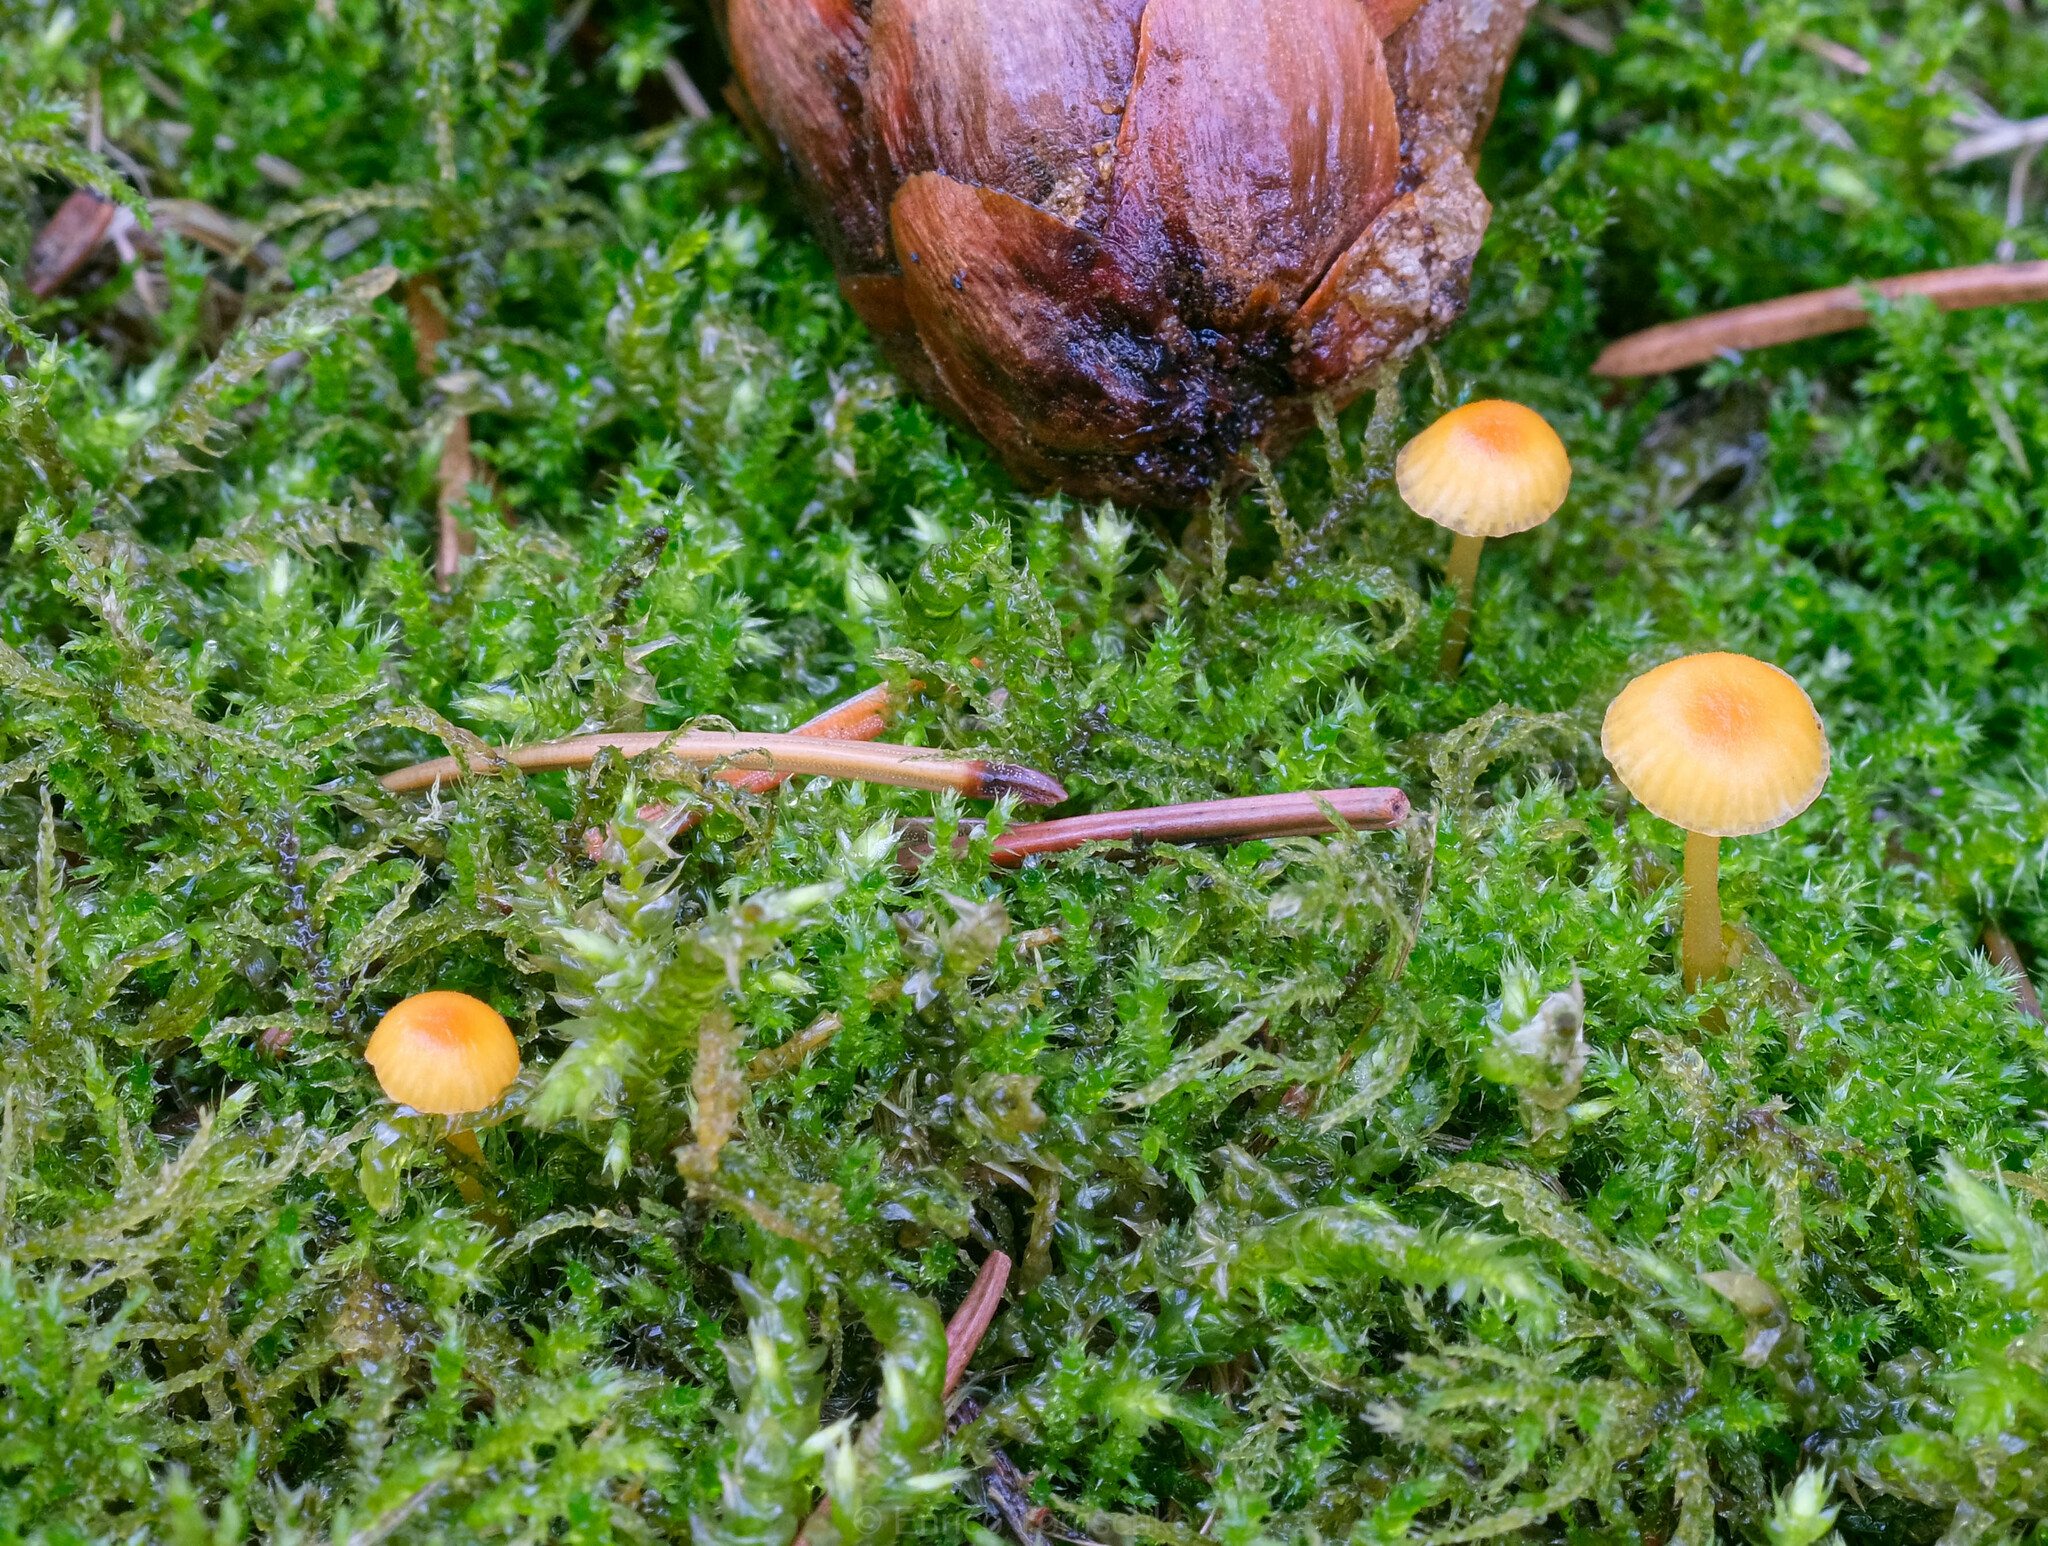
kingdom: Fungi
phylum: Basidiomycota
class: Agaricomycetes
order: Hymenochaetales
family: Rickenellaceae
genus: Rickenella
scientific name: Rickenella fibula
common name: Orange mosscap
